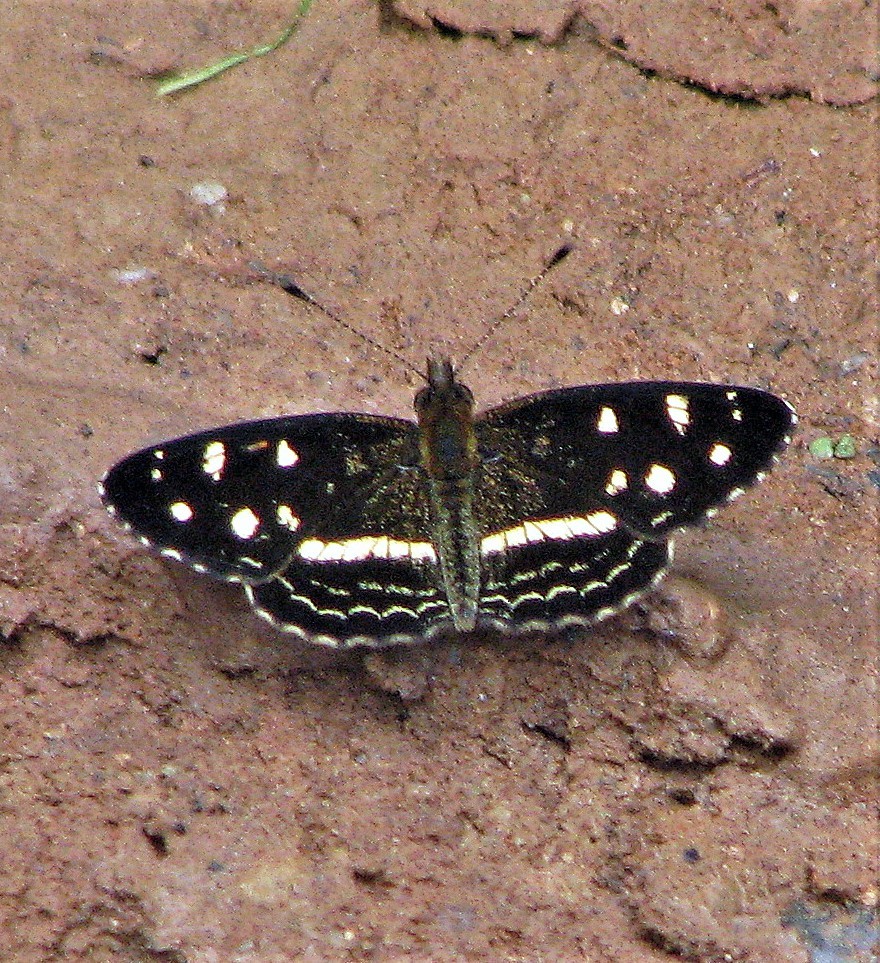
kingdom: Animalia
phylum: Arthropoda
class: Insecta
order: Lepidoptera
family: Nymphalidae
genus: Dagon
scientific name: Dagon catula
